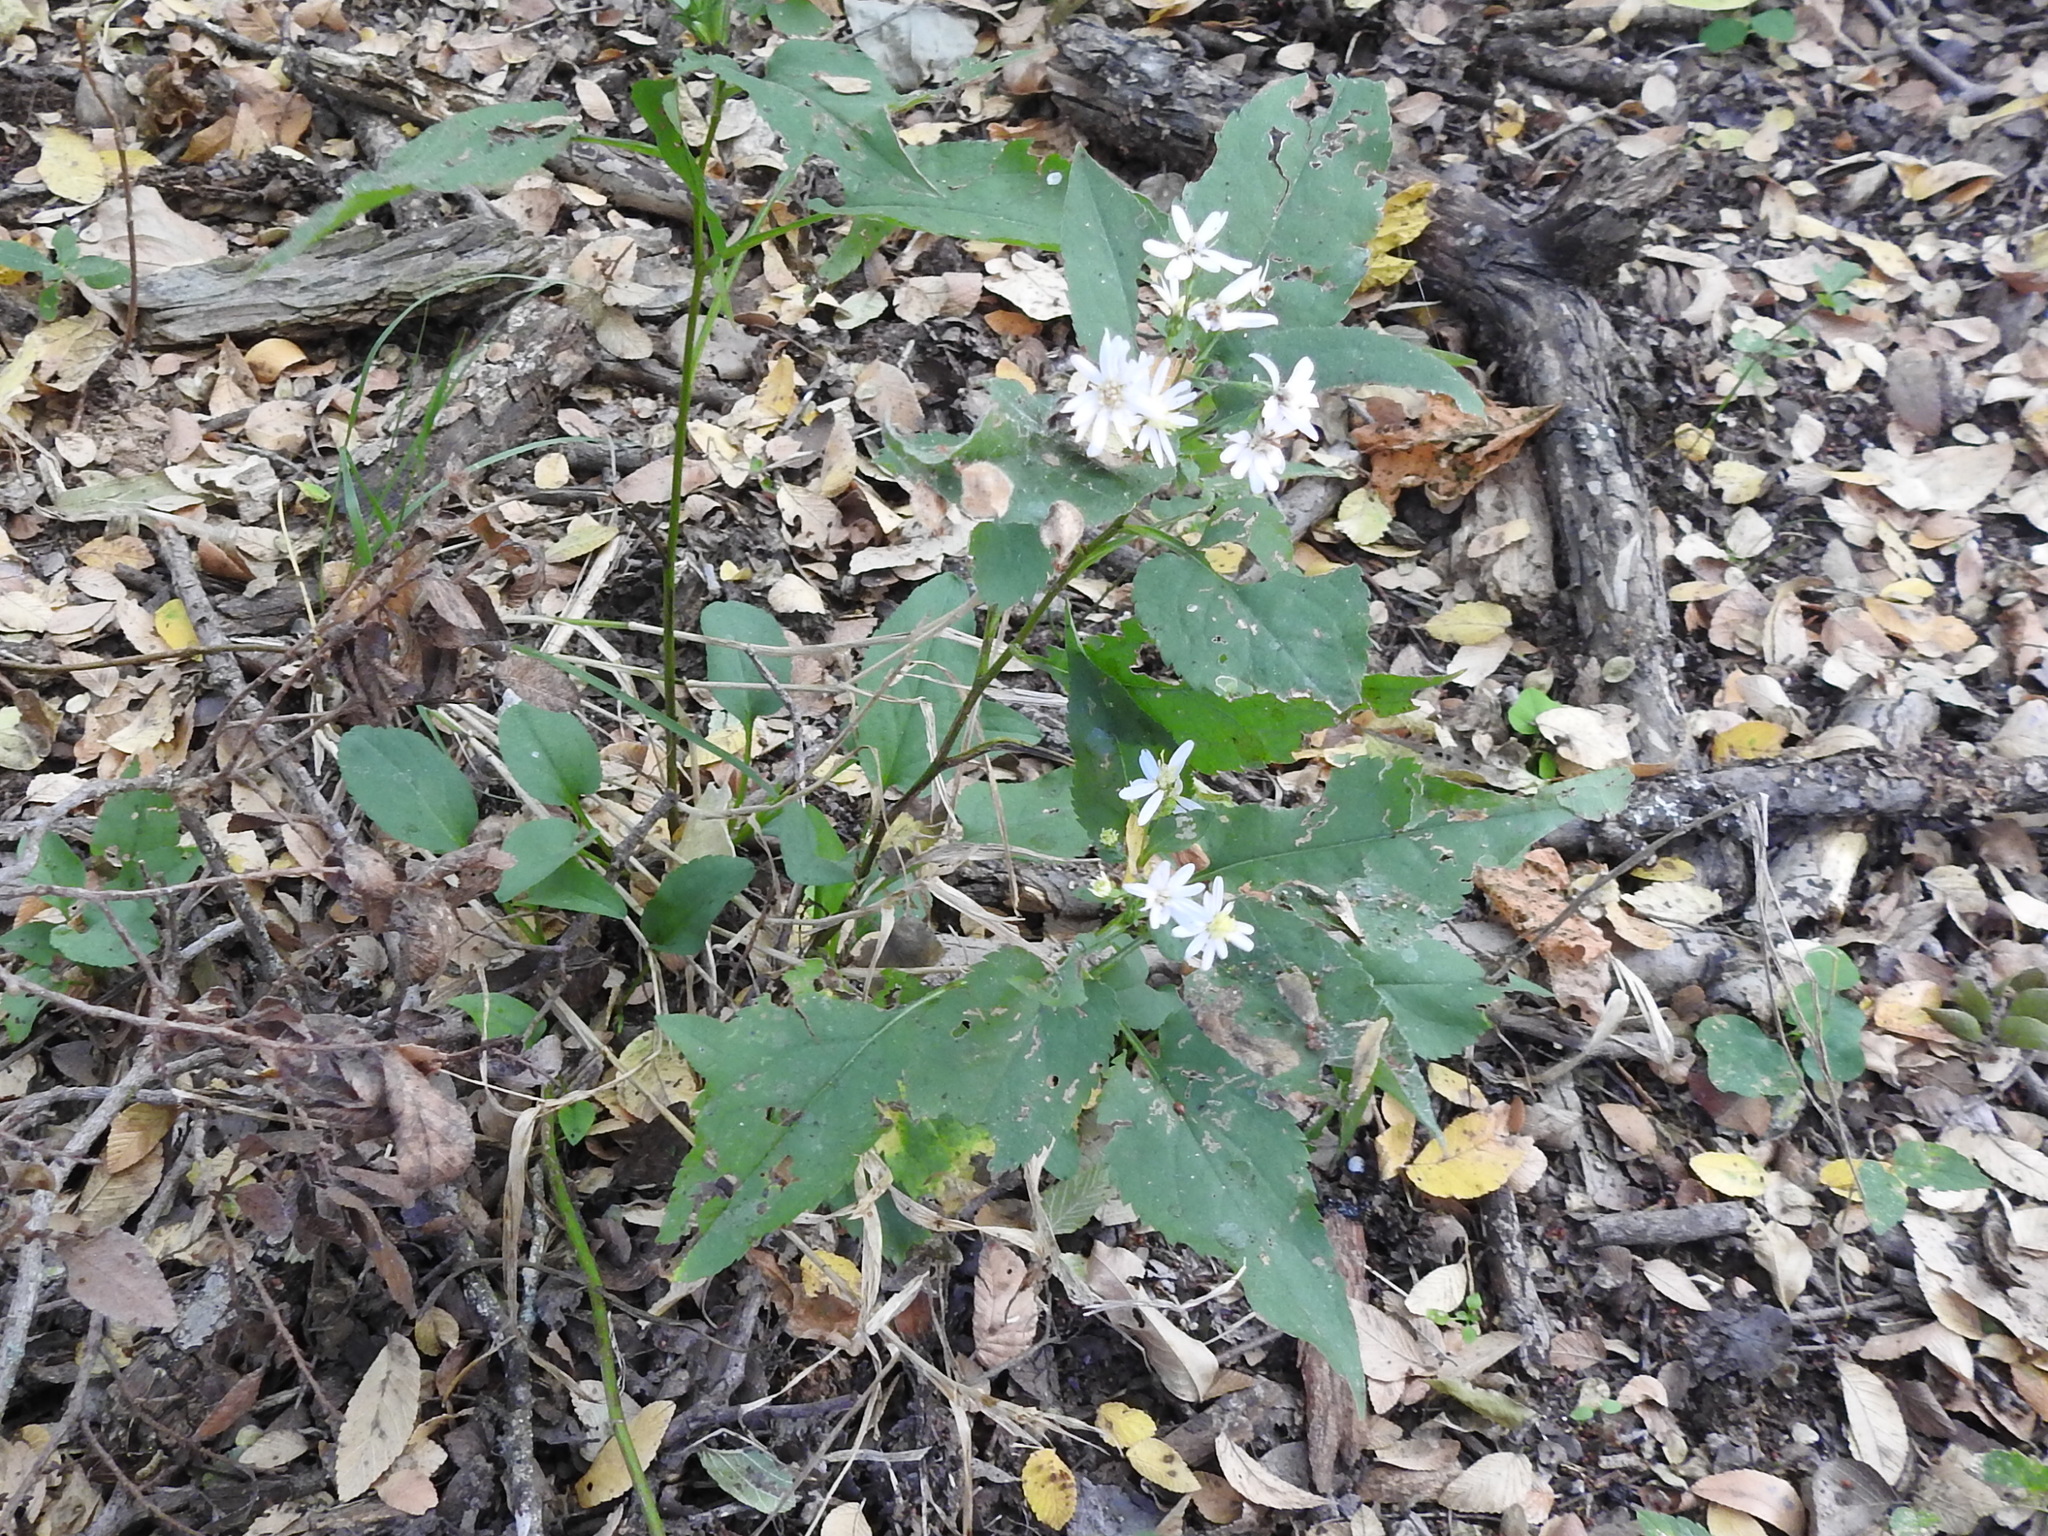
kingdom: Plantae
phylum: Tracheophyta
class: Magnoliopsida
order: Asterales
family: Asteraceae
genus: Symphyotrichum
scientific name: Symphyotrichum drummondii
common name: Drummond's aster
